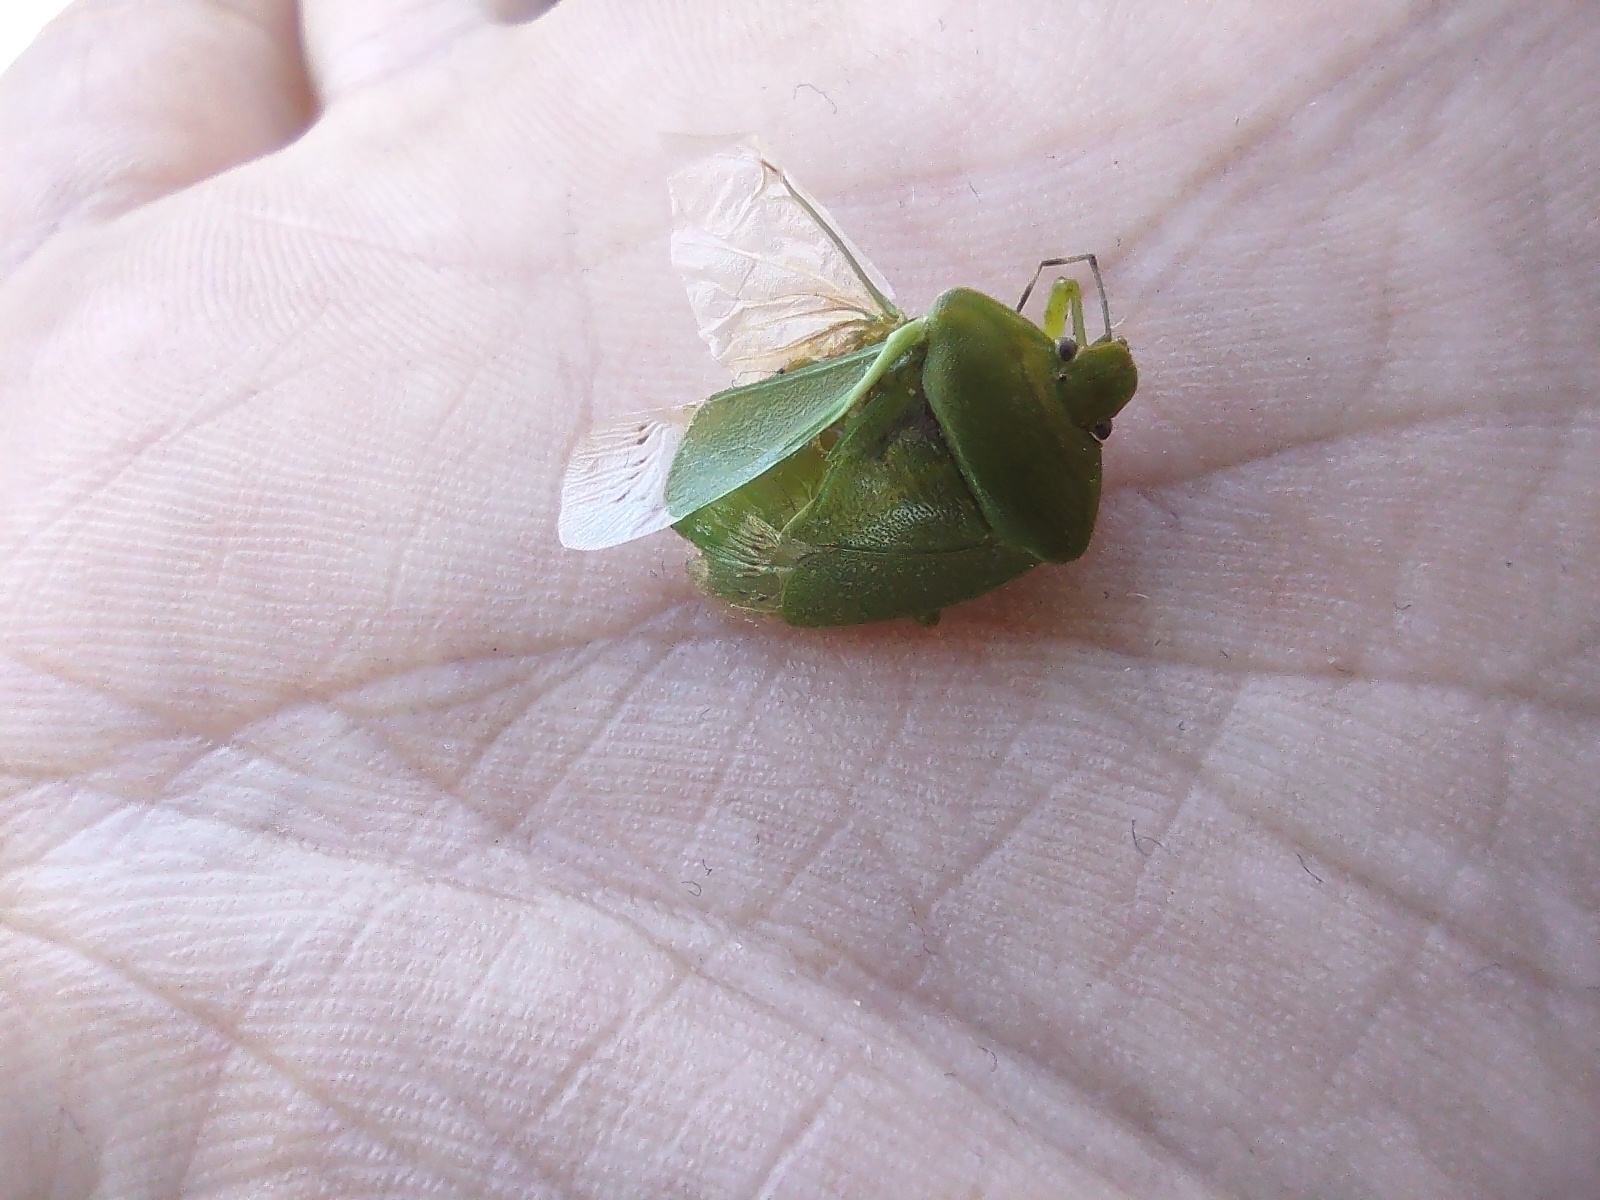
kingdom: Animalia
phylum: Arthropoda
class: Insecta
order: Hemiptera
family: Pentatomidae
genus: Chinavia
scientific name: Chinavia hilaris
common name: Green stink bug
